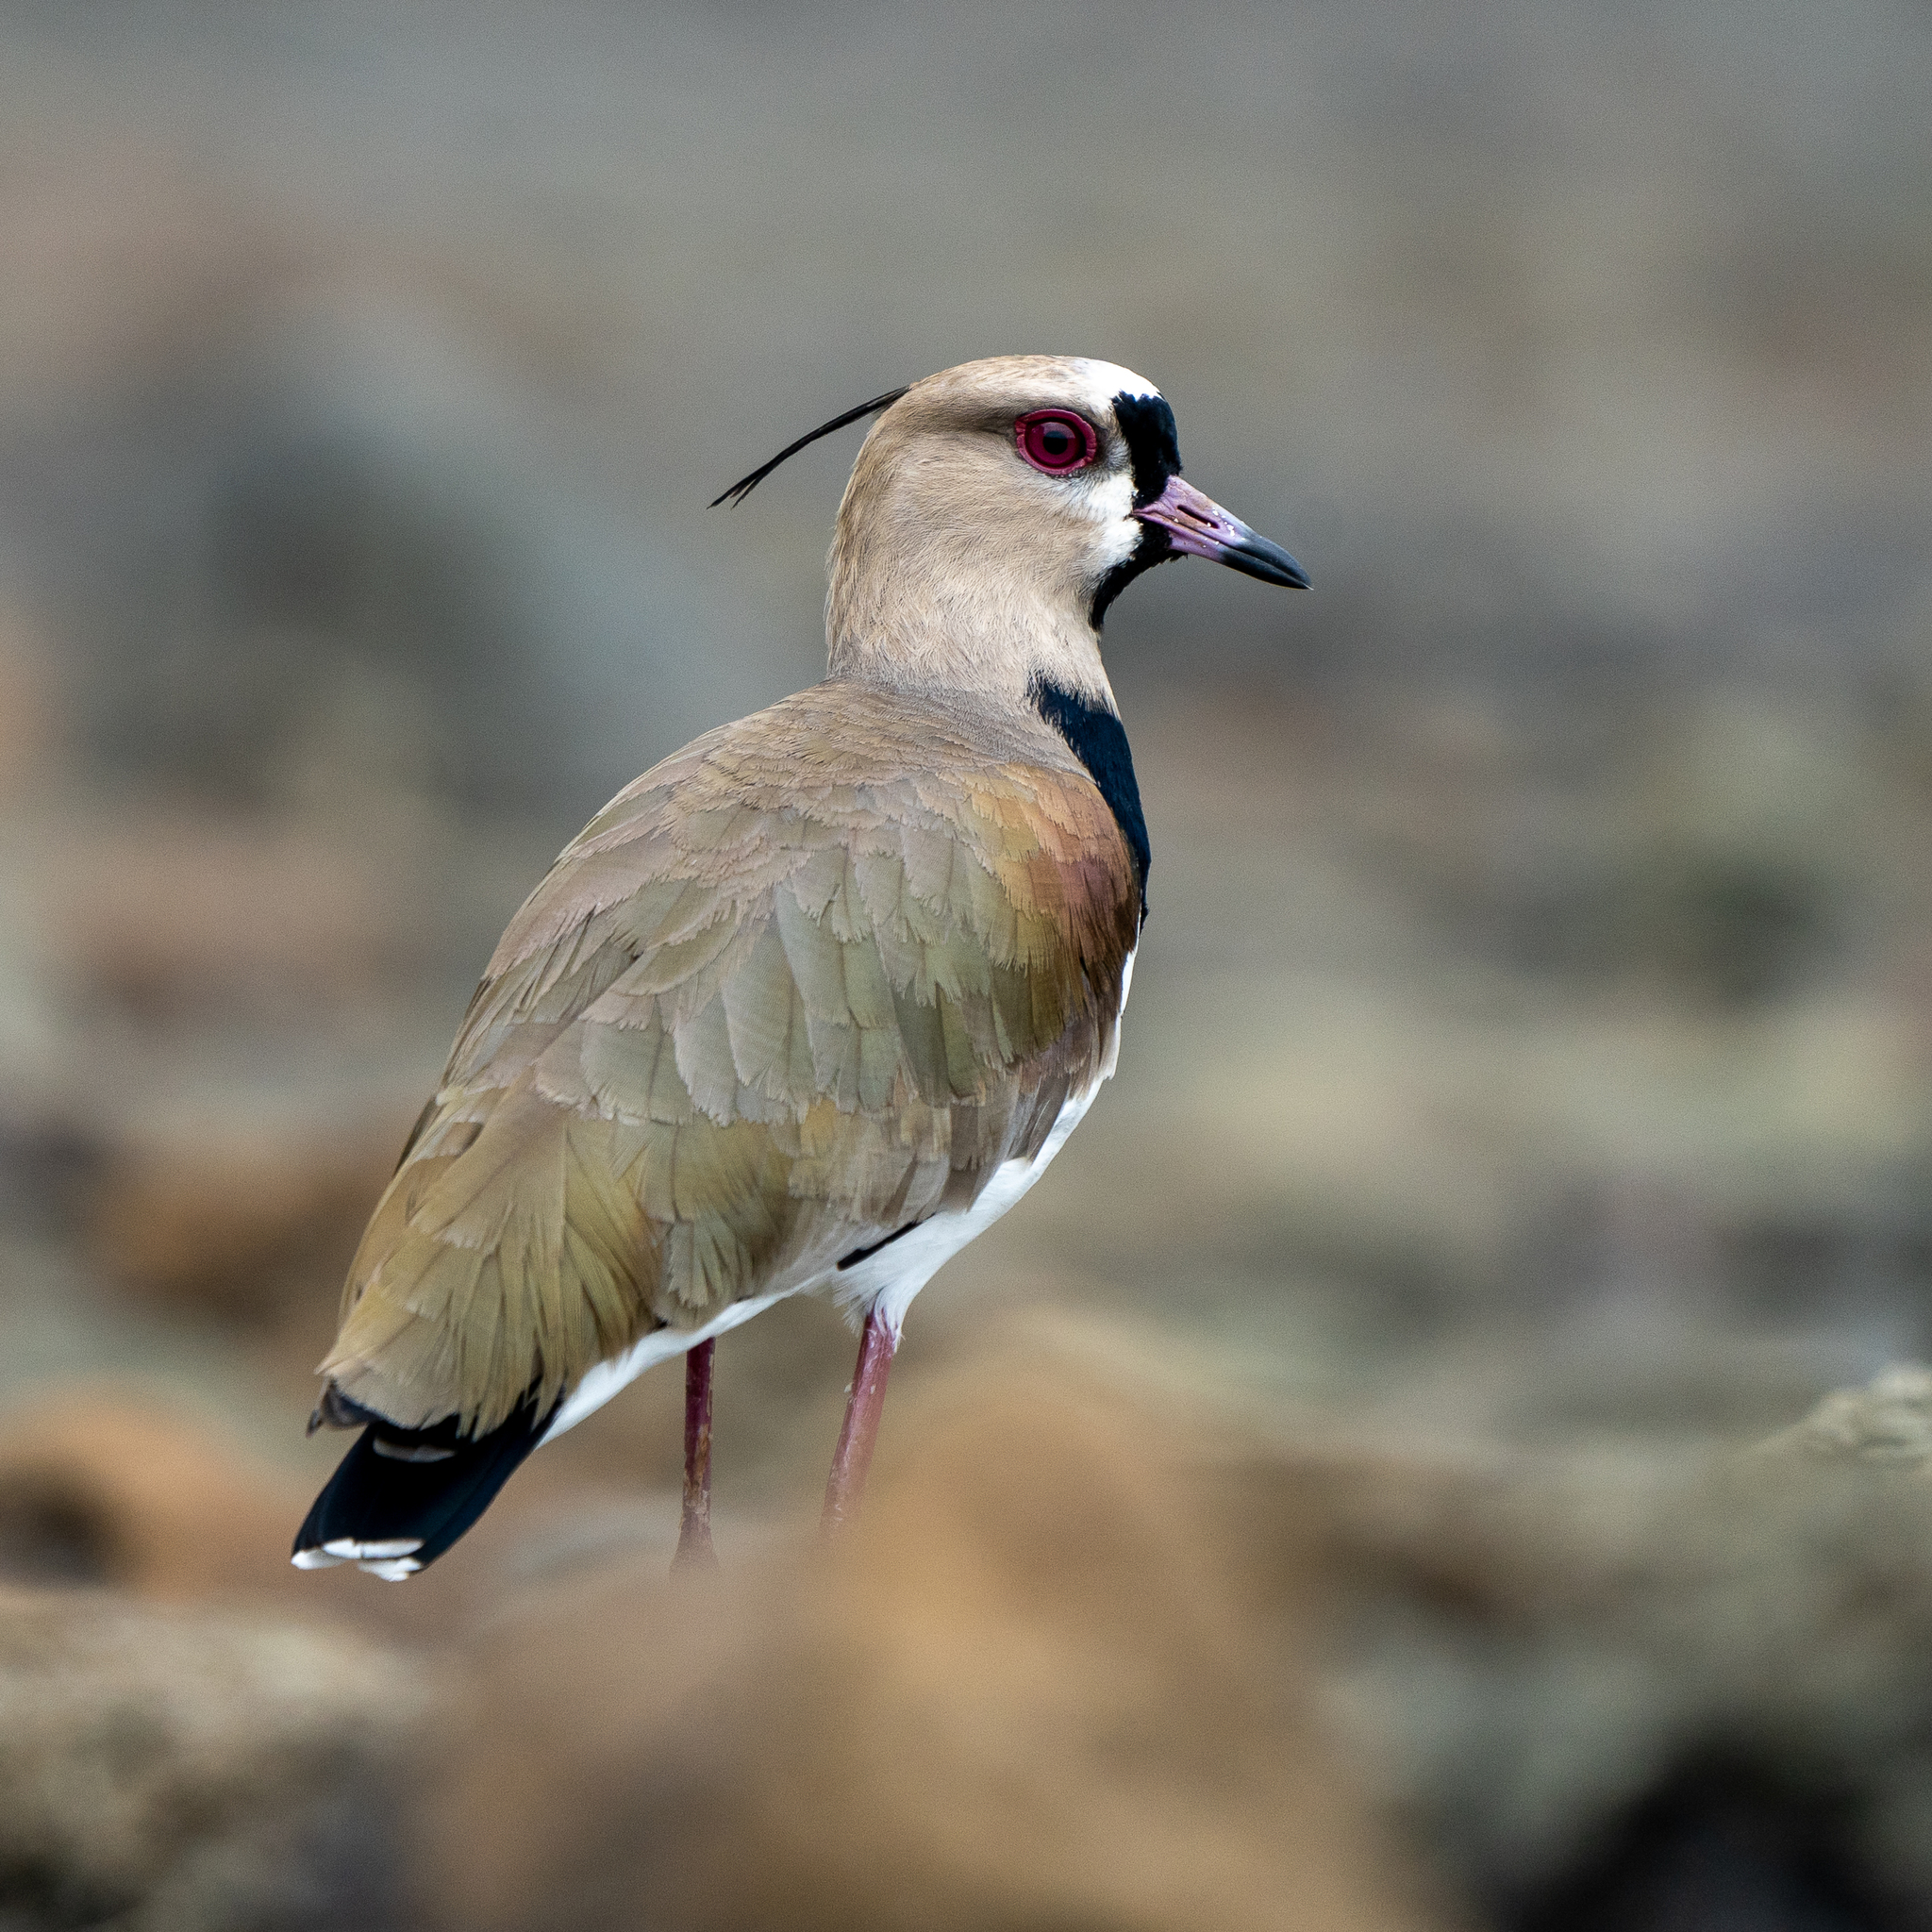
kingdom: Animalia
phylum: Chordata
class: Aves
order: Charadriiformes
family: Charadriidae
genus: Vanellus
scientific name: Vanellus chilensis
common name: Southern lapwing
